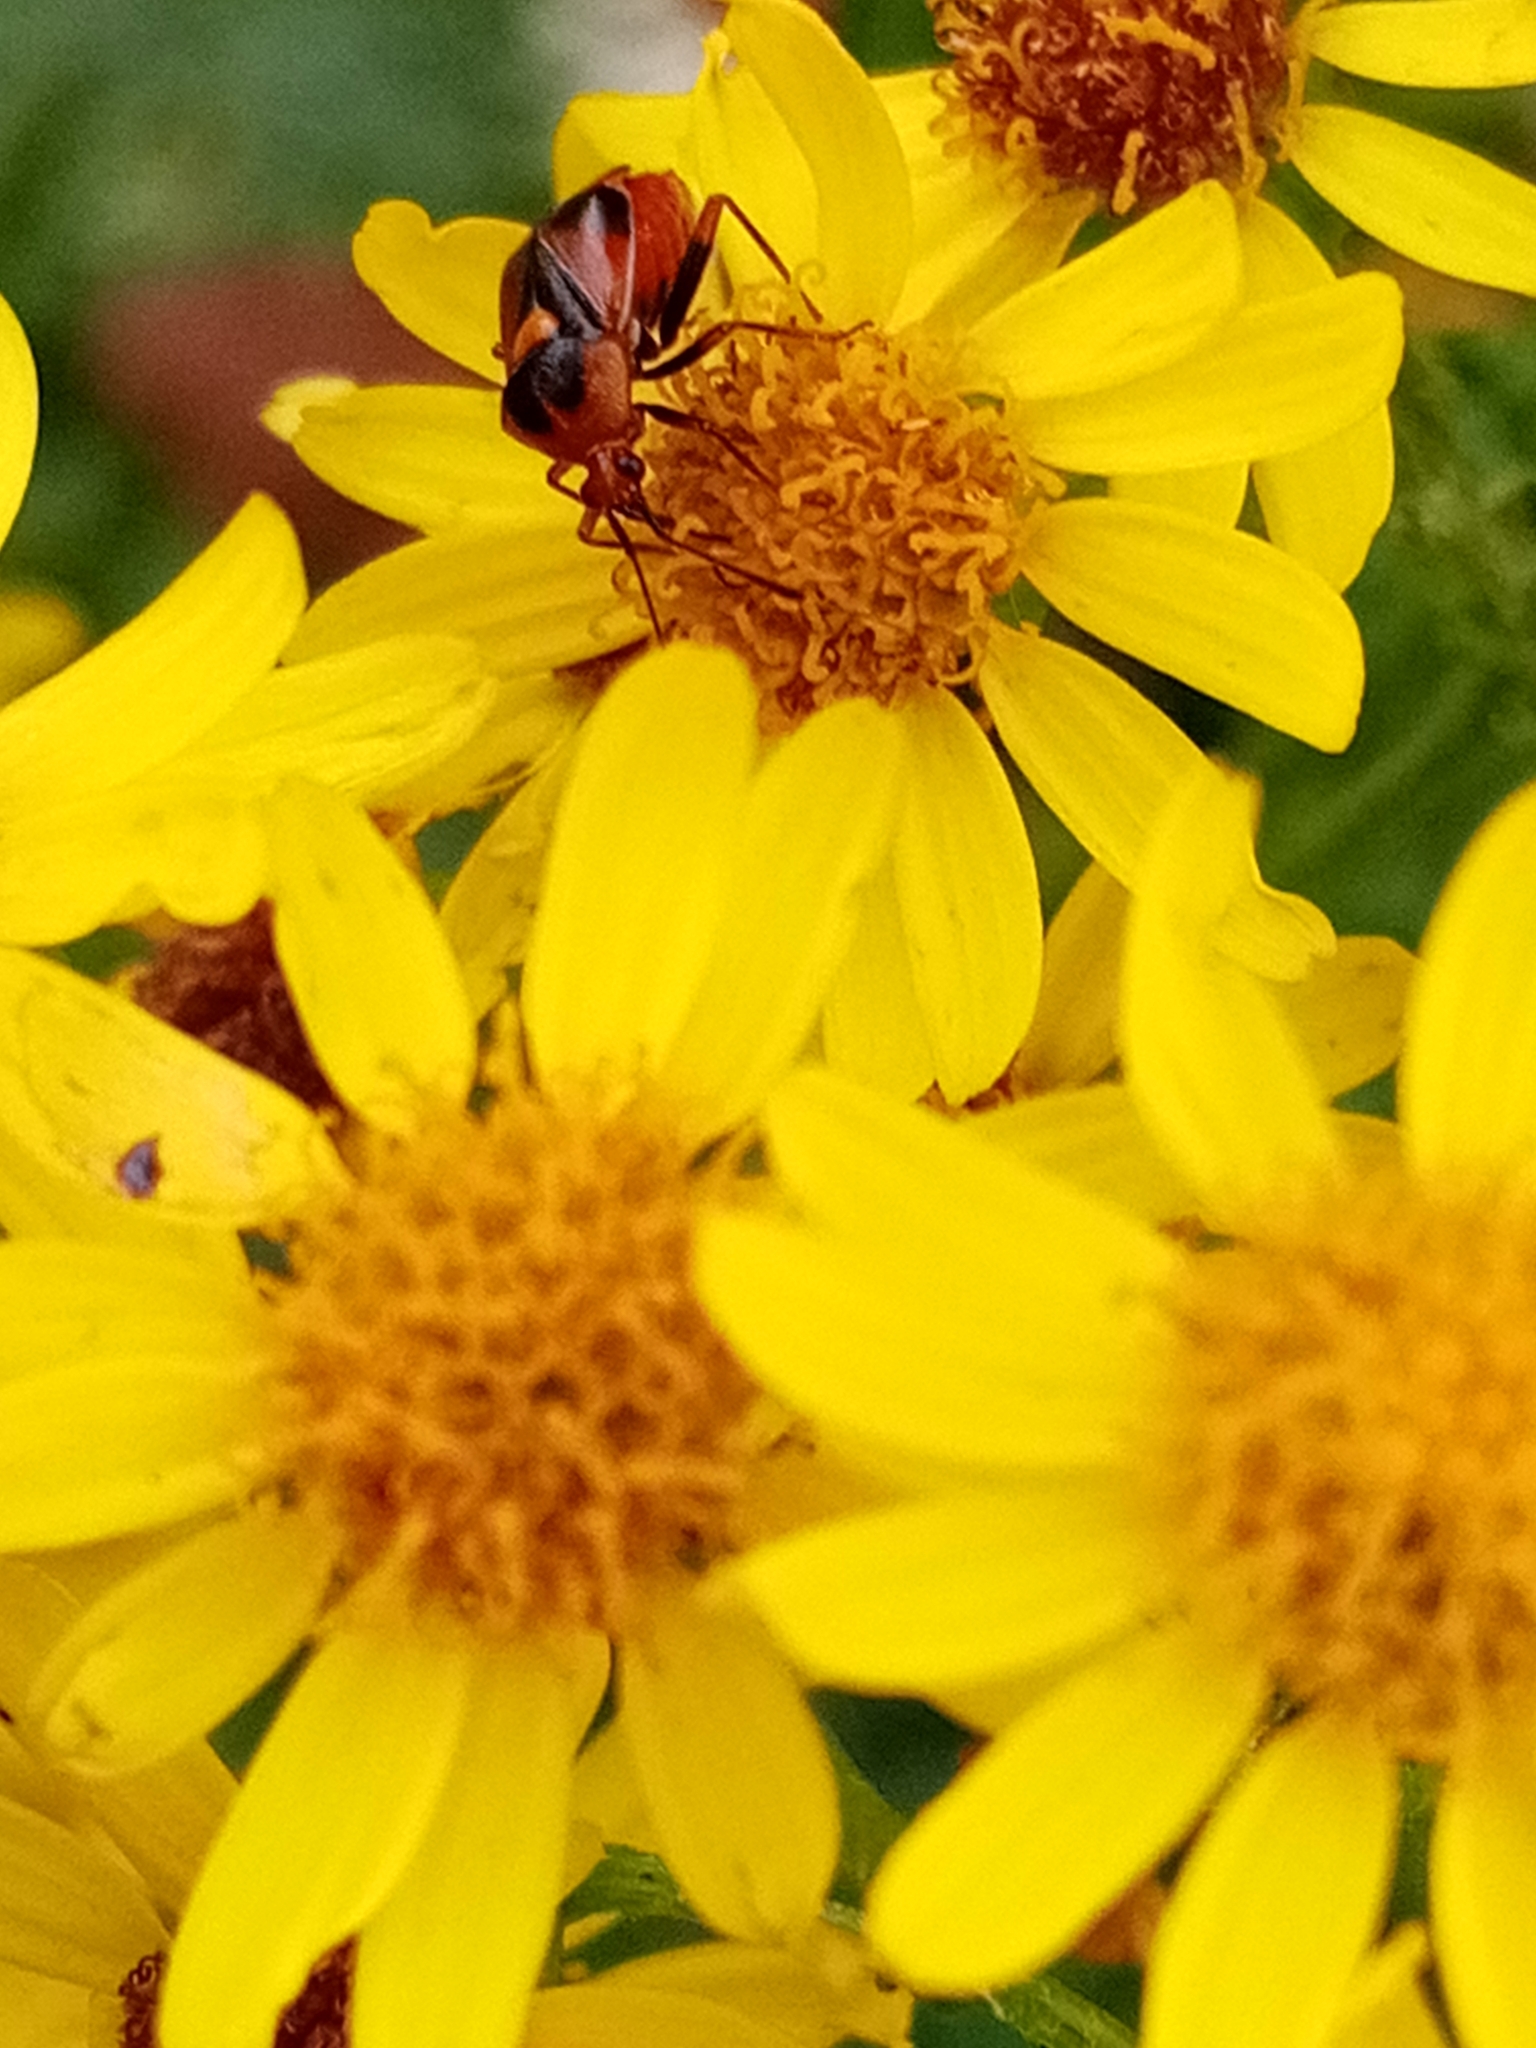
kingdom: Animalia
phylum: Arthropoda
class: Insecta
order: Hemiptera
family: Miridae
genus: Deraeocoris
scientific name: Deraeocoris ruber
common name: Plant bug
